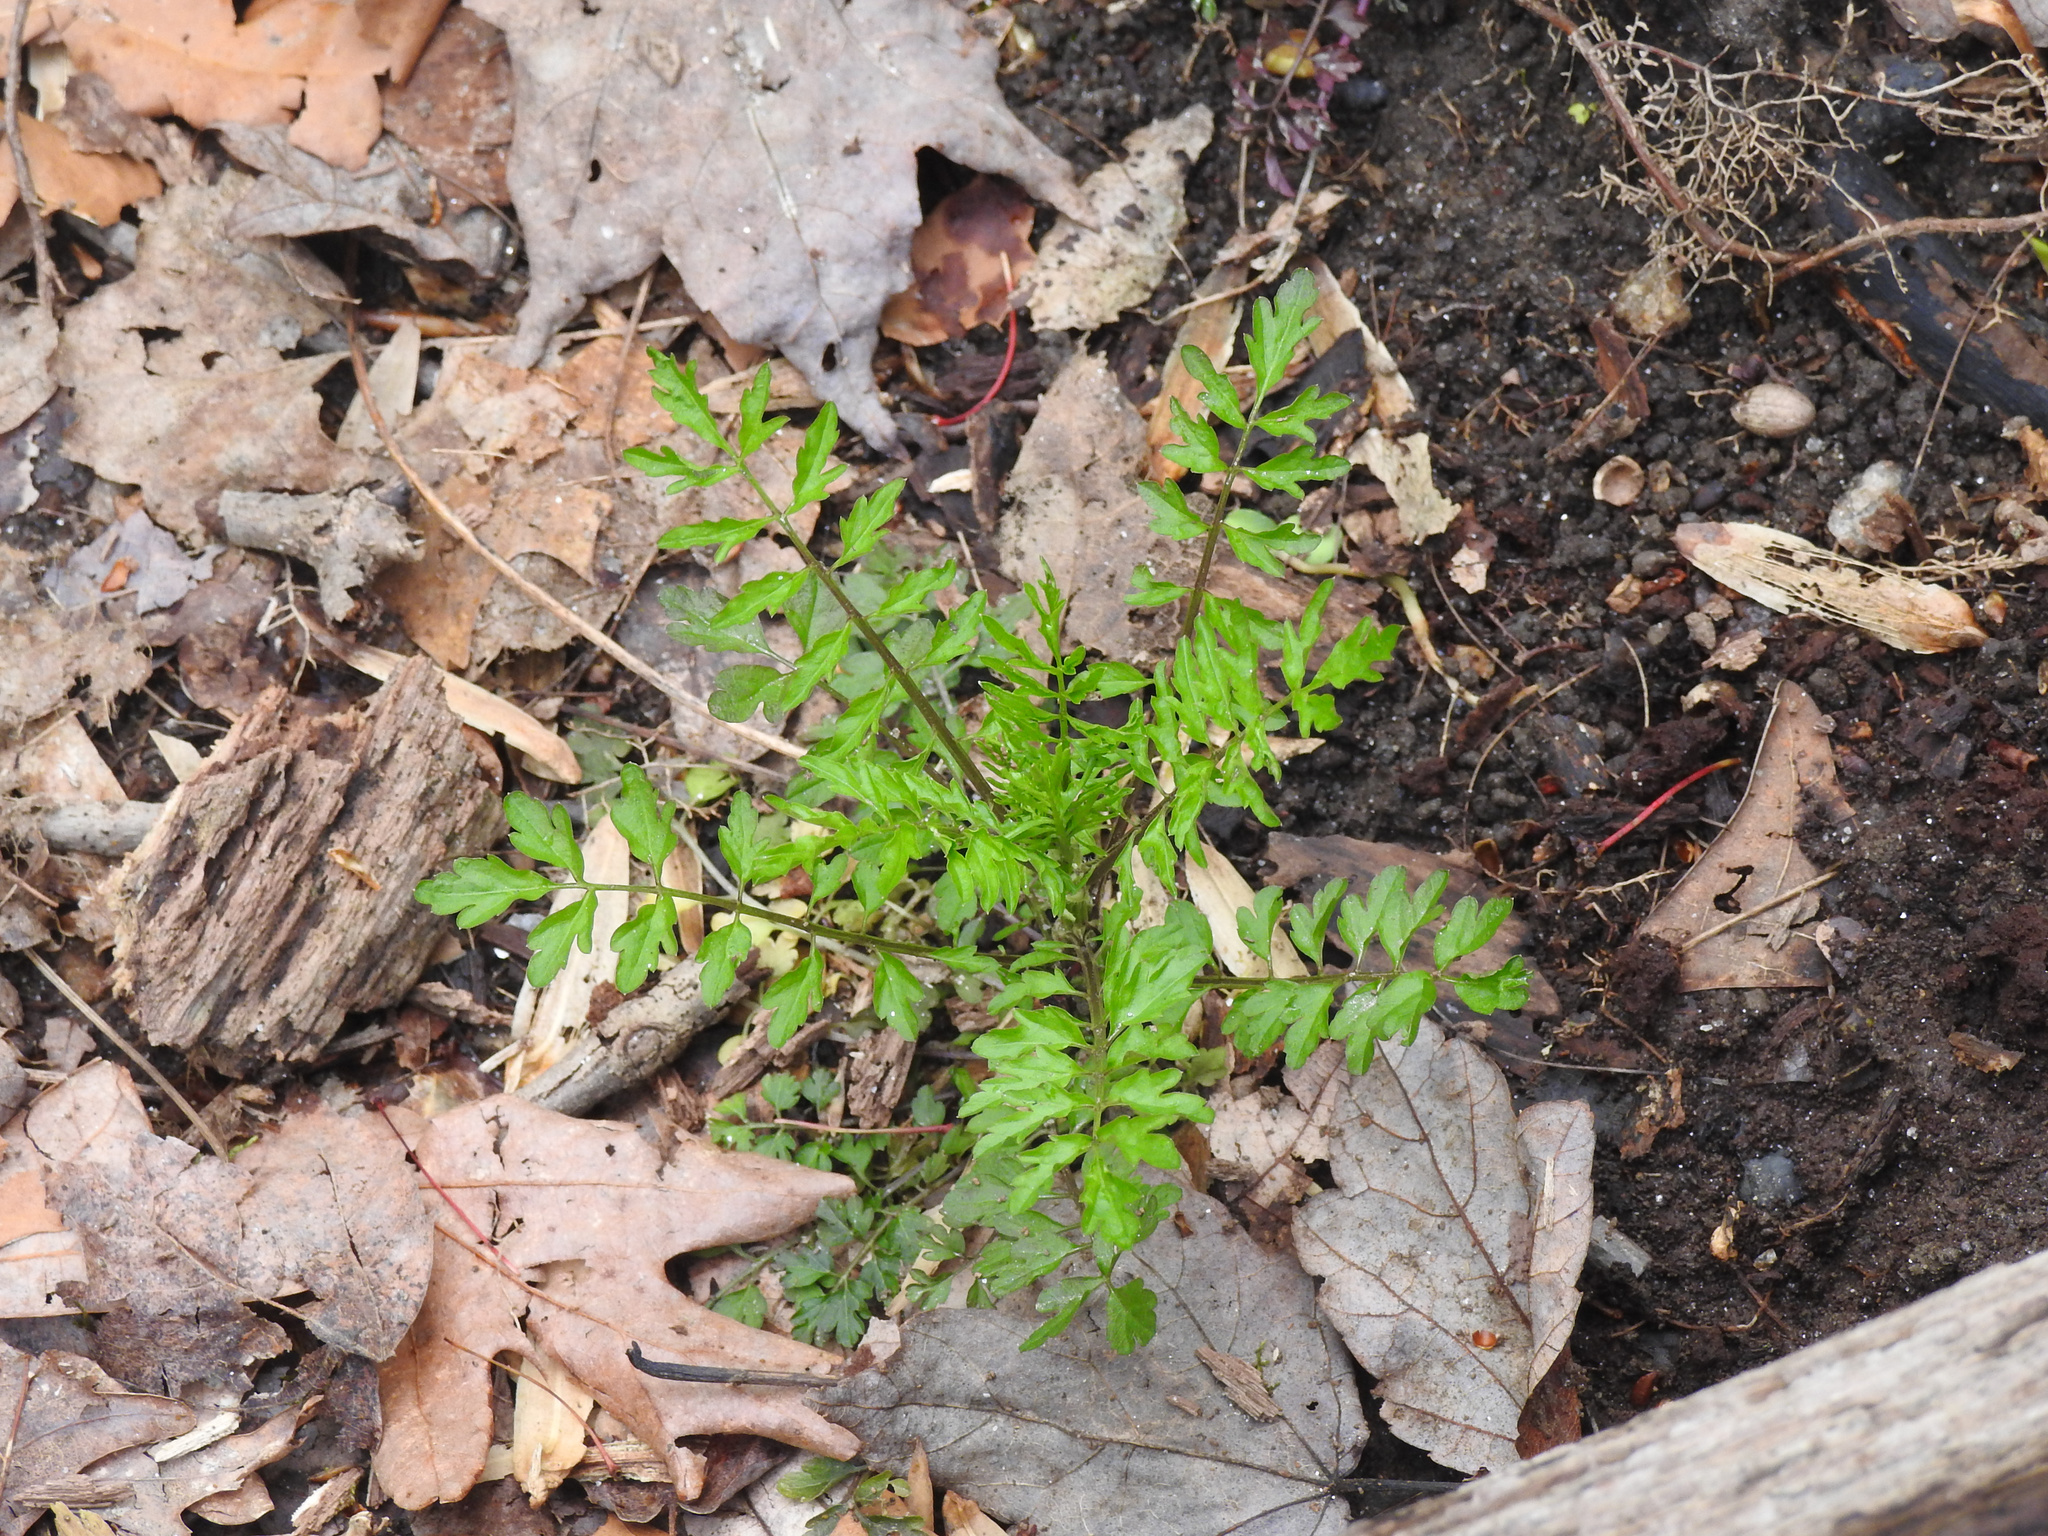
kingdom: Plantae
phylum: Tracheophyta
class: Magnoliopsida
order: Brassicales
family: Brassicaceae
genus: Cardamine
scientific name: Cardamine impatiens
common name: Narrow-leaved bitter-cress
